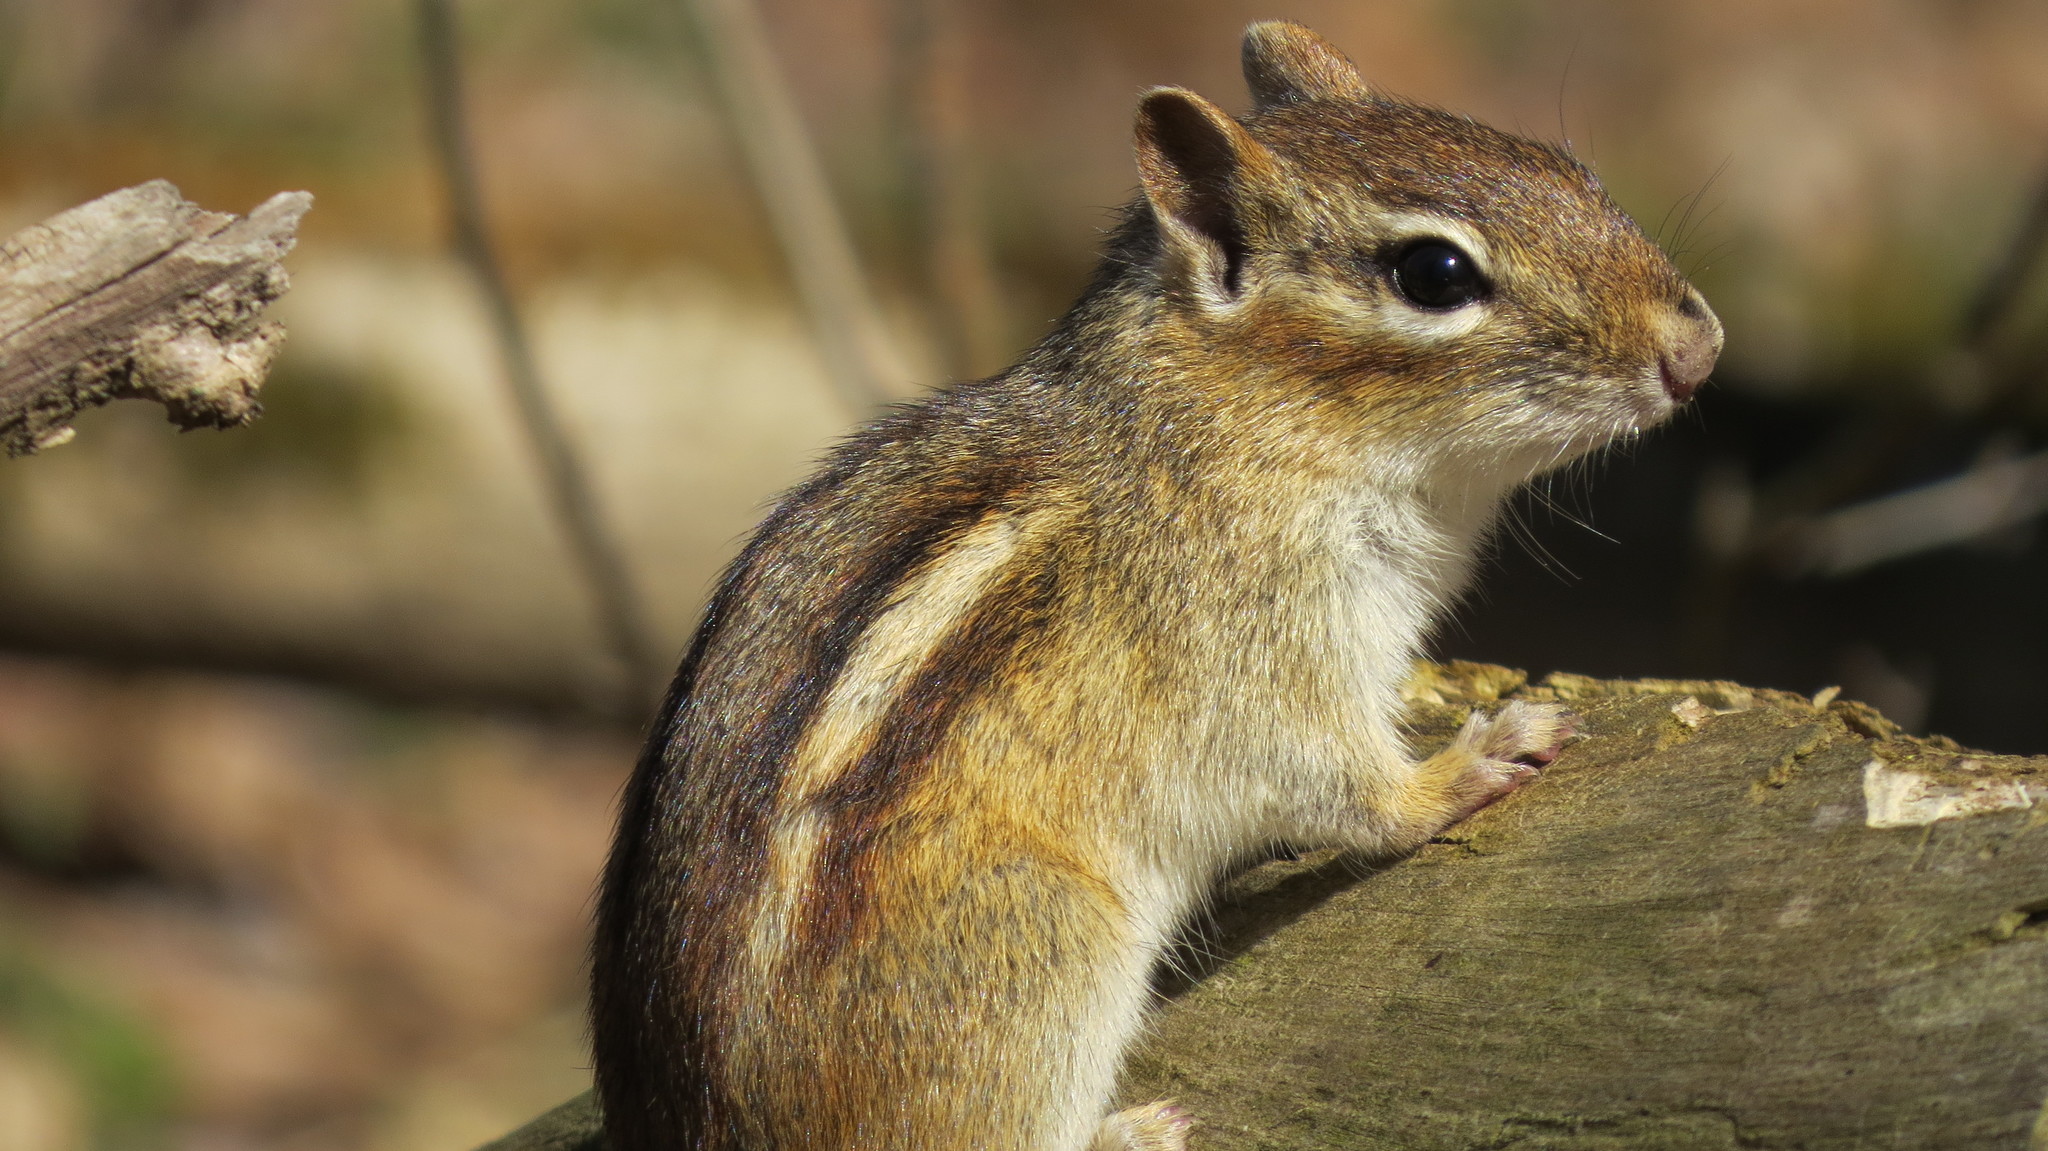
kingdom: Animalia
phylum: Chordata
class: Mammalia
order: Rodentia
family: Sciuridae
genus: Tamias
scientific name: Tamias striatus
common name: Eastern chipmunk
